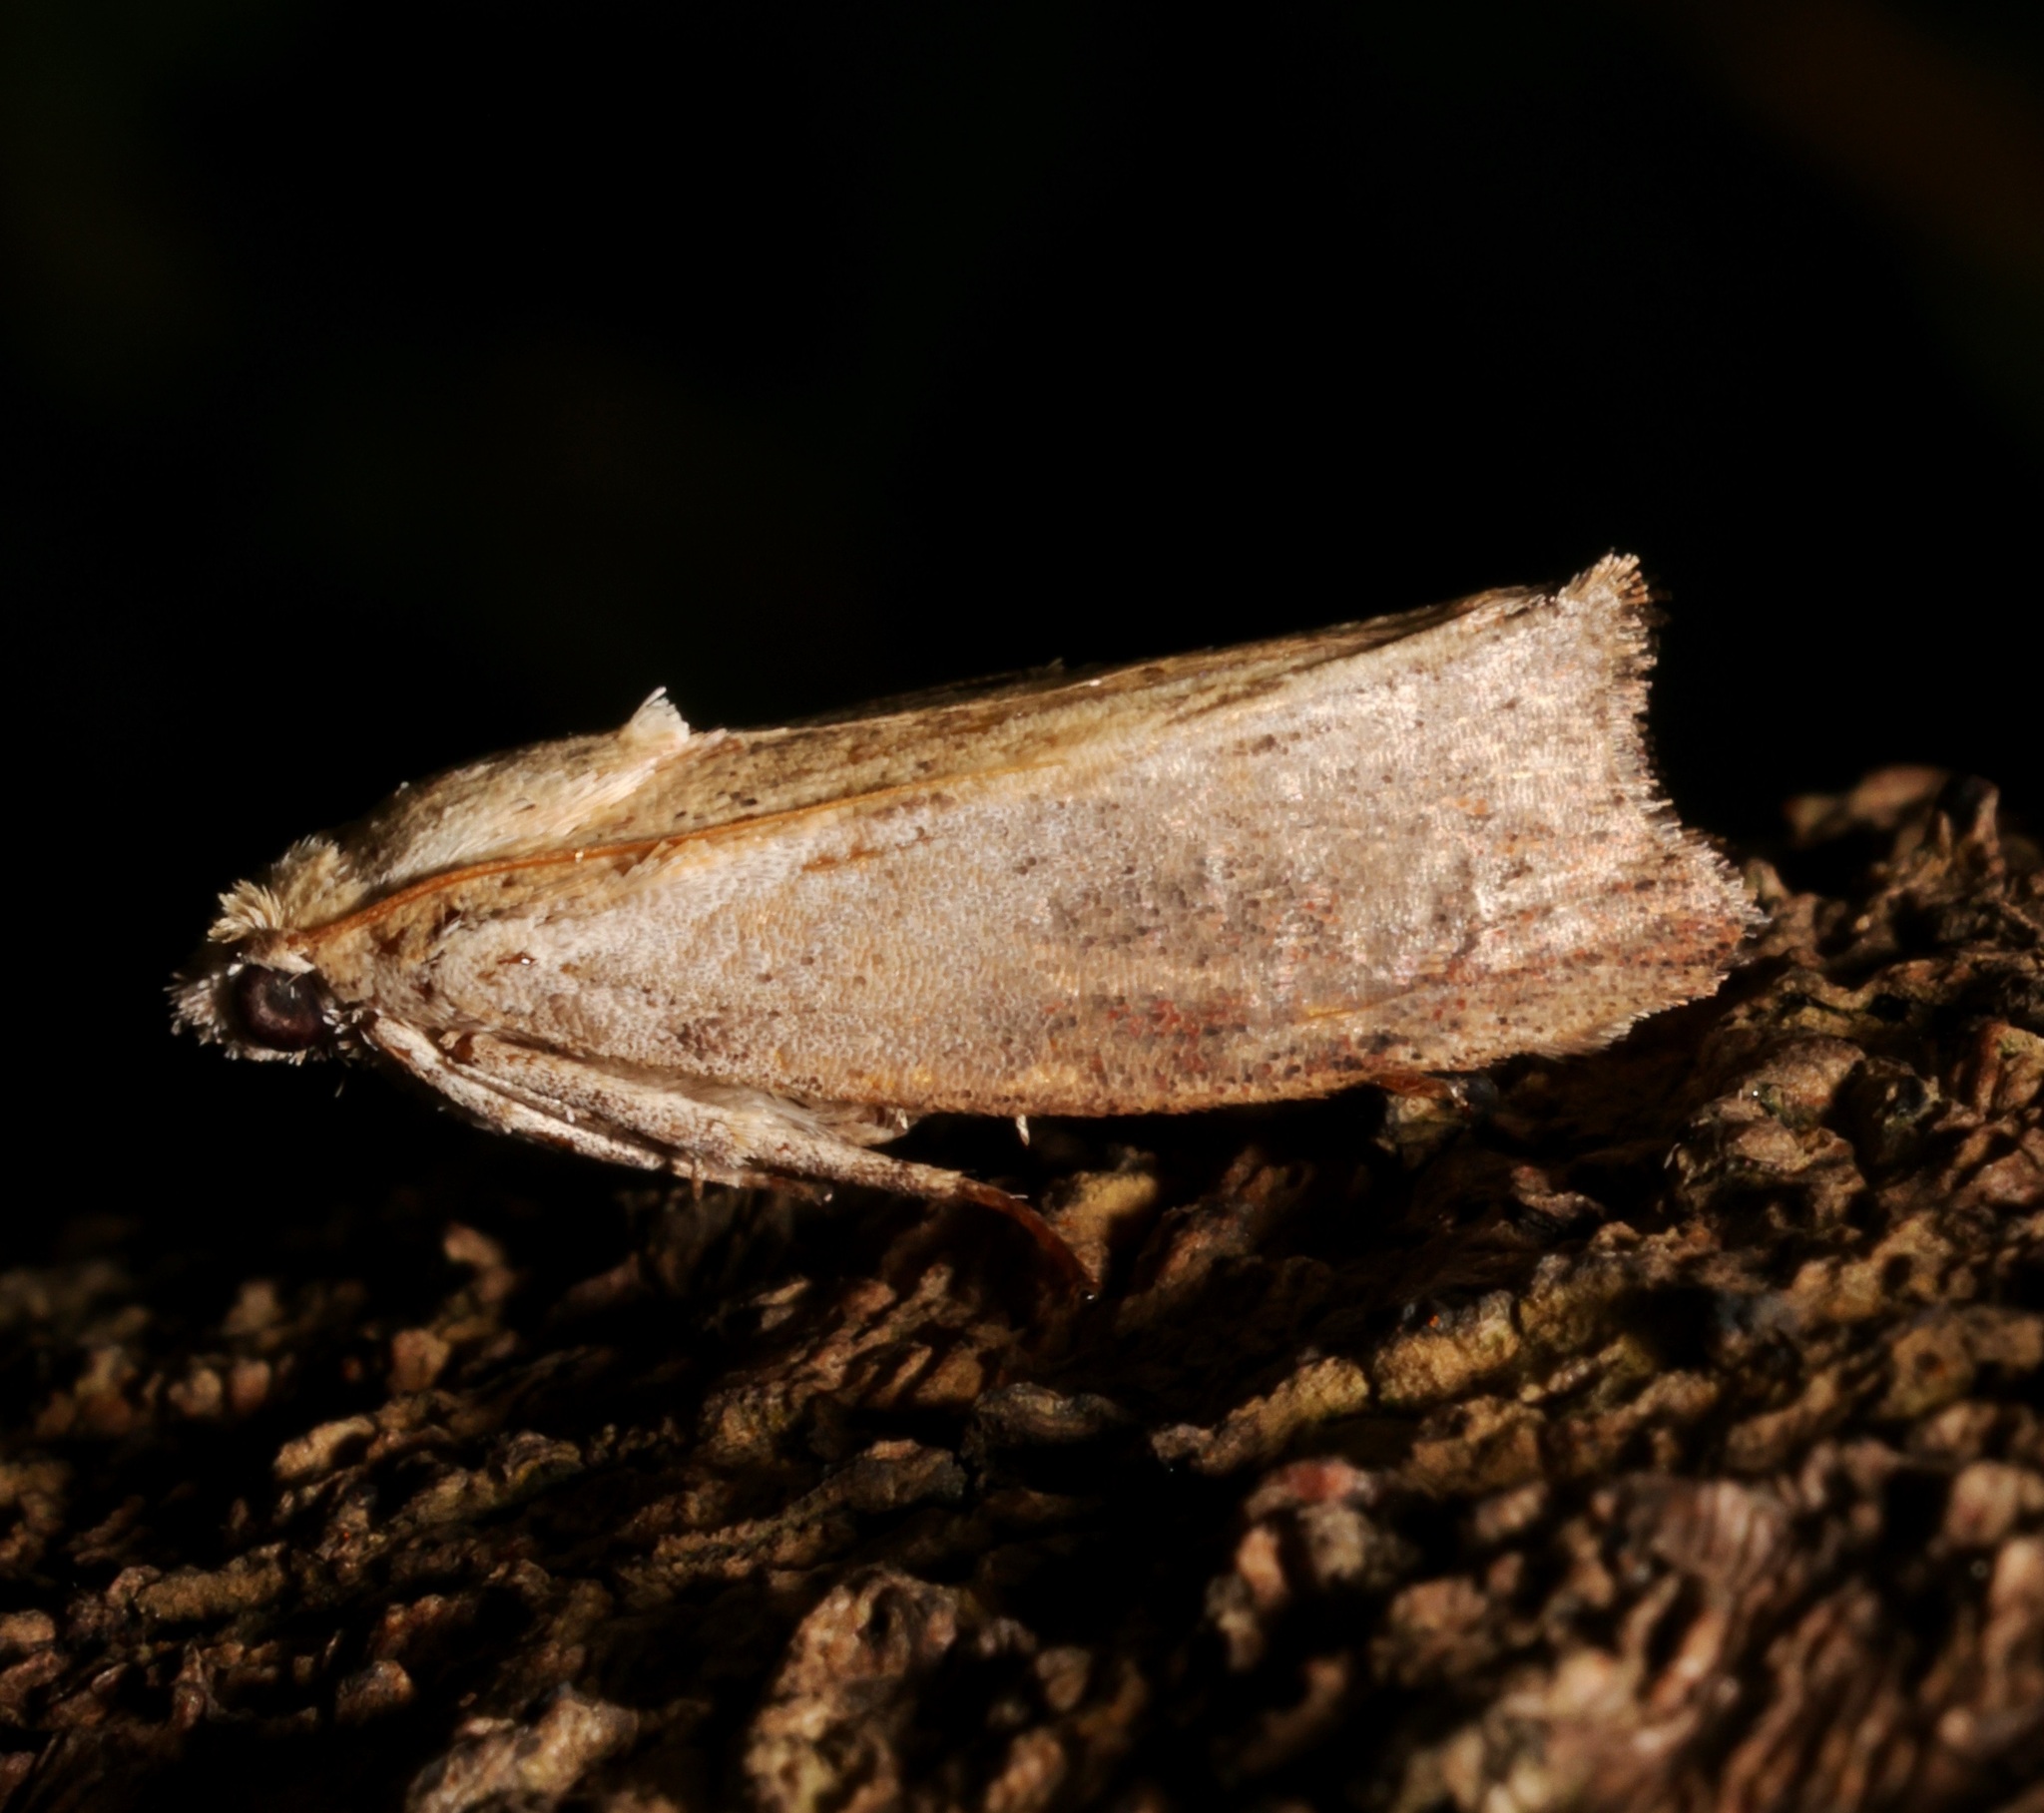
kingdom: Animalia
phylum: Arthropoda
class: Insecta
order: Lepidoptera
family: Pyralidae
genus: Galleria
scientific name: Galleria mellonella
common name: Greater wax moth
